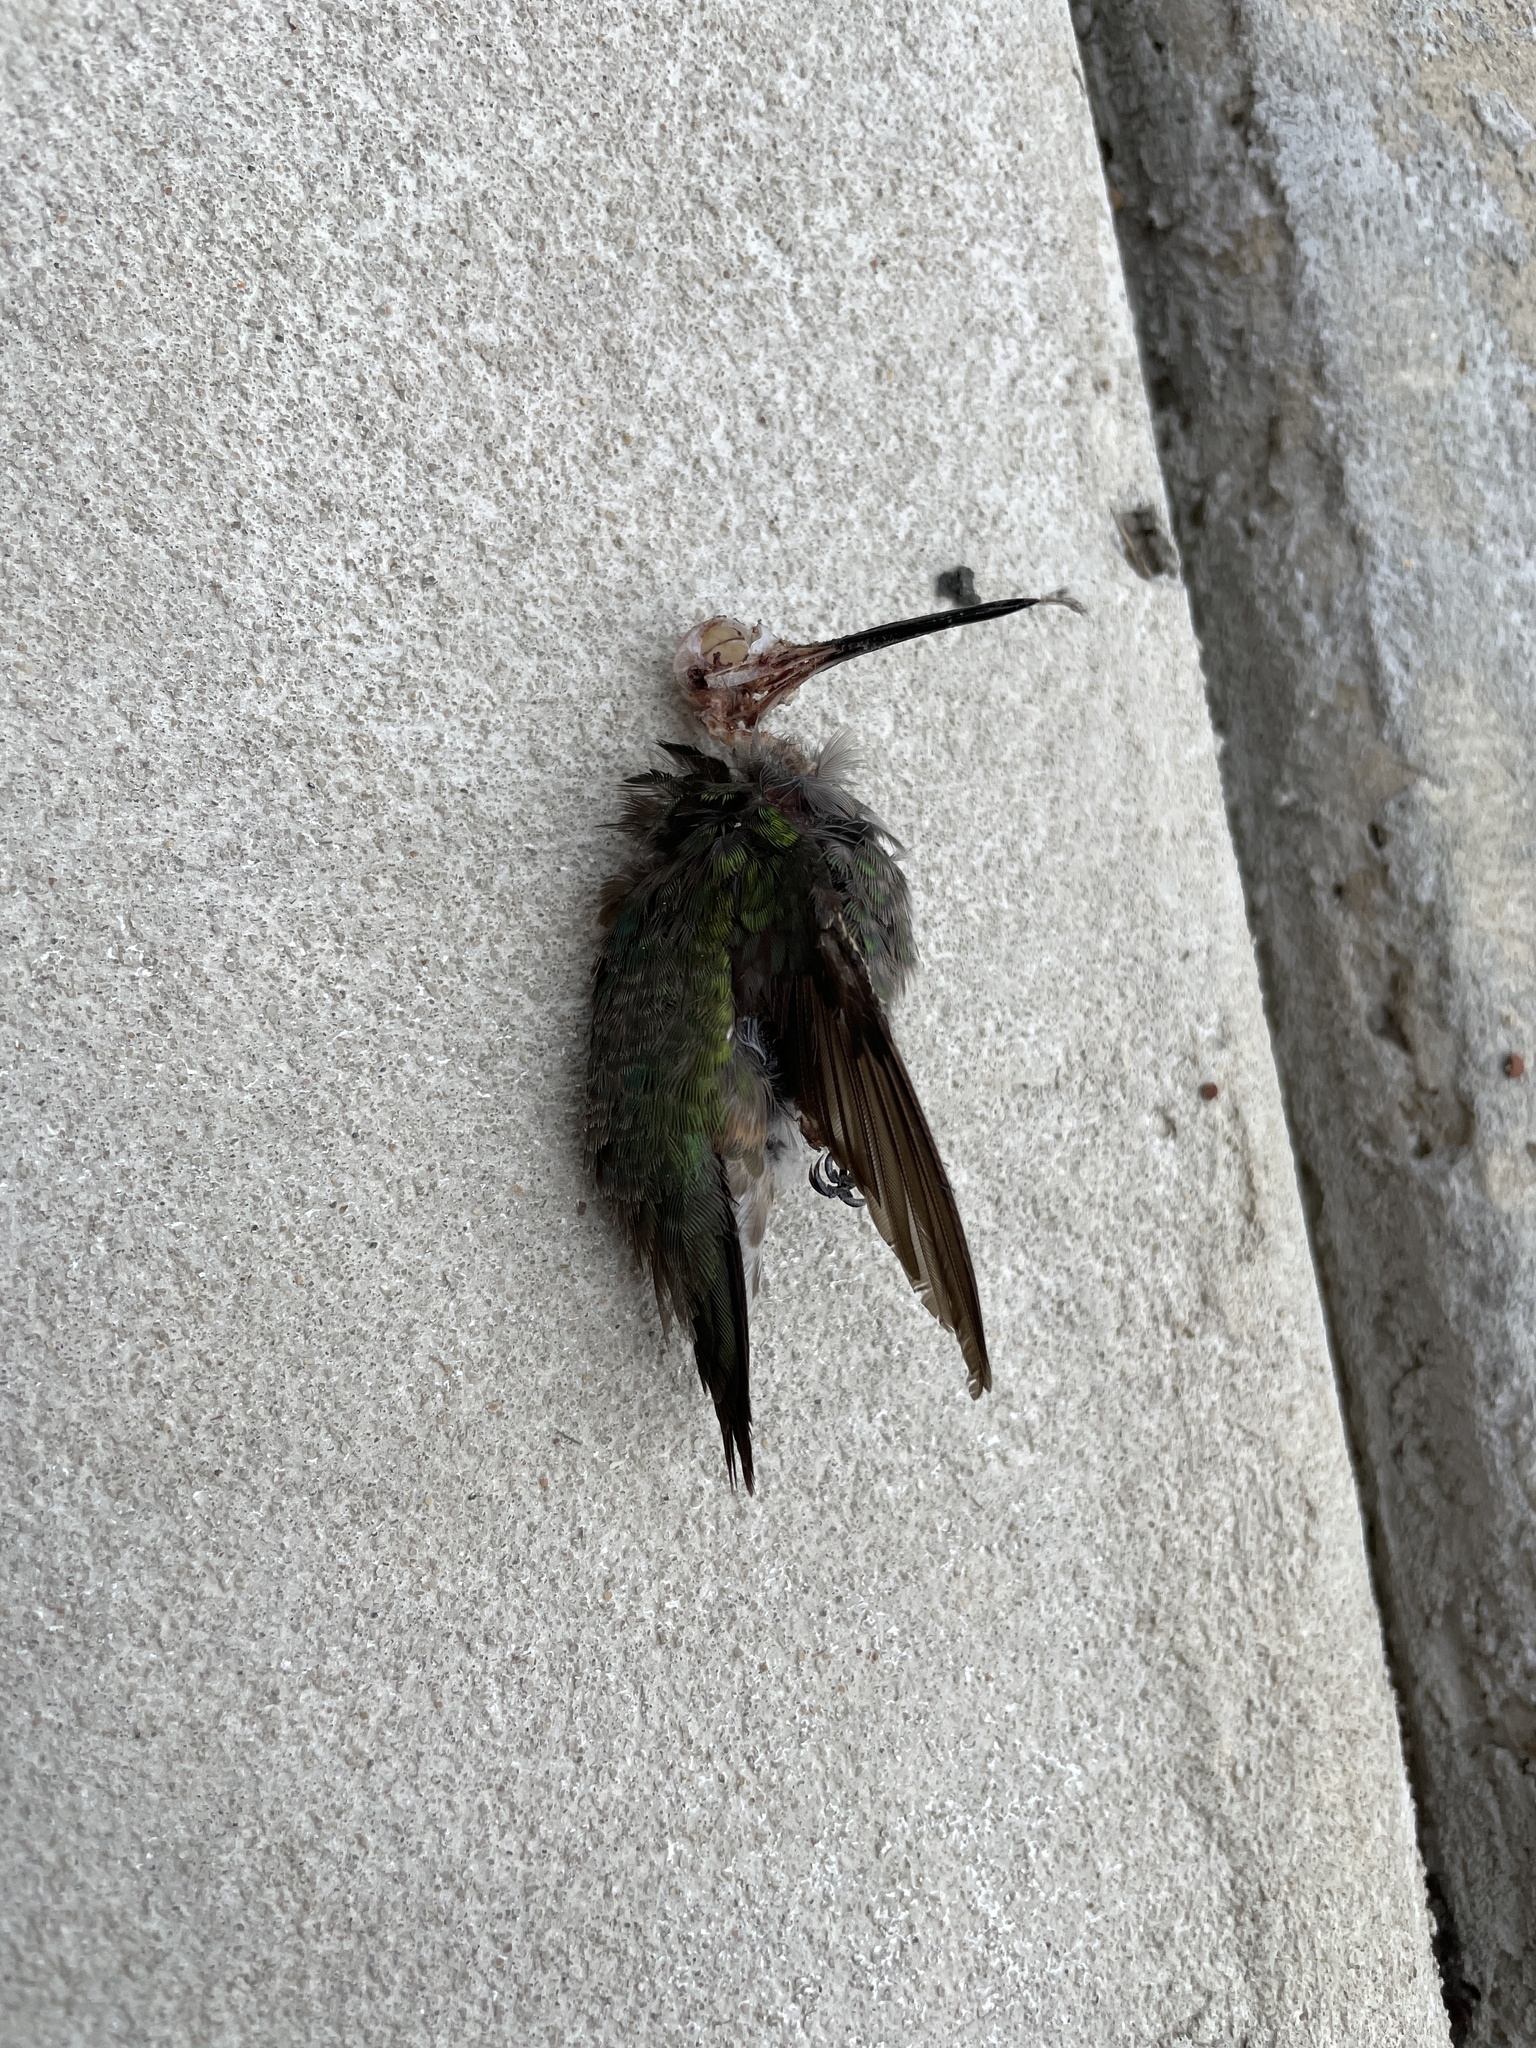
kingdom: Animalia
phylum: Chordata
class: Aves
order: Apodiformes
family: Trochilidae
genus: Archilochus
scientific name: Archilochus colubris
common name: Ruby-throated hummingbird
